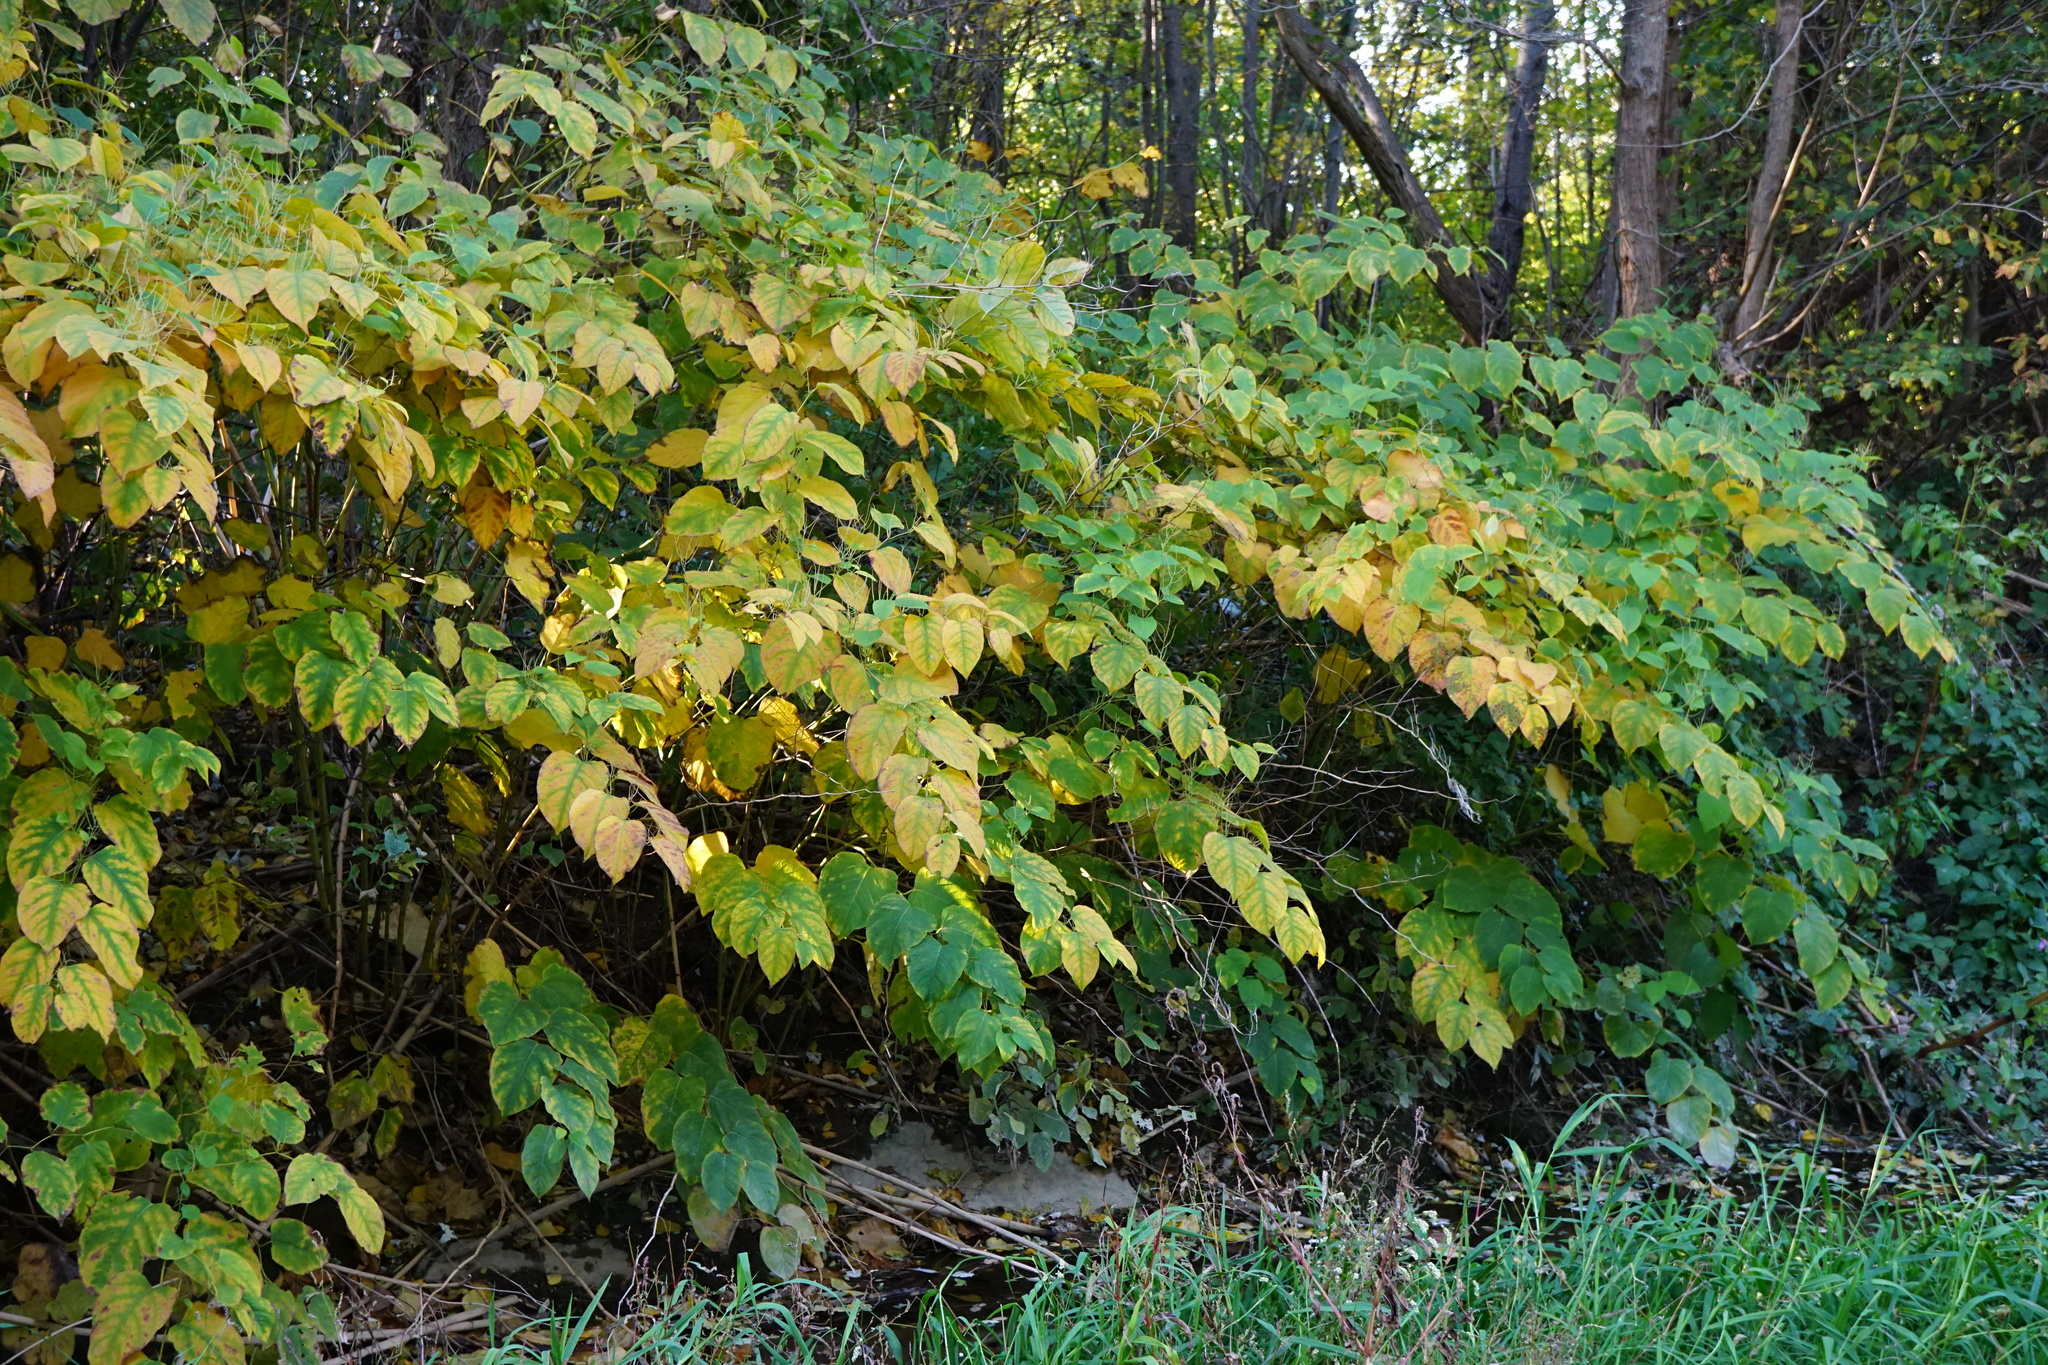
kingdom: Plantae
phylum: Tracheophyta
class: Magnoliopsida
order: Caryophyllales
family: Polygonaceae
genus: Reynoutria
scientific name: Reynoutria bohemica
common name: Bohemian knotweed
